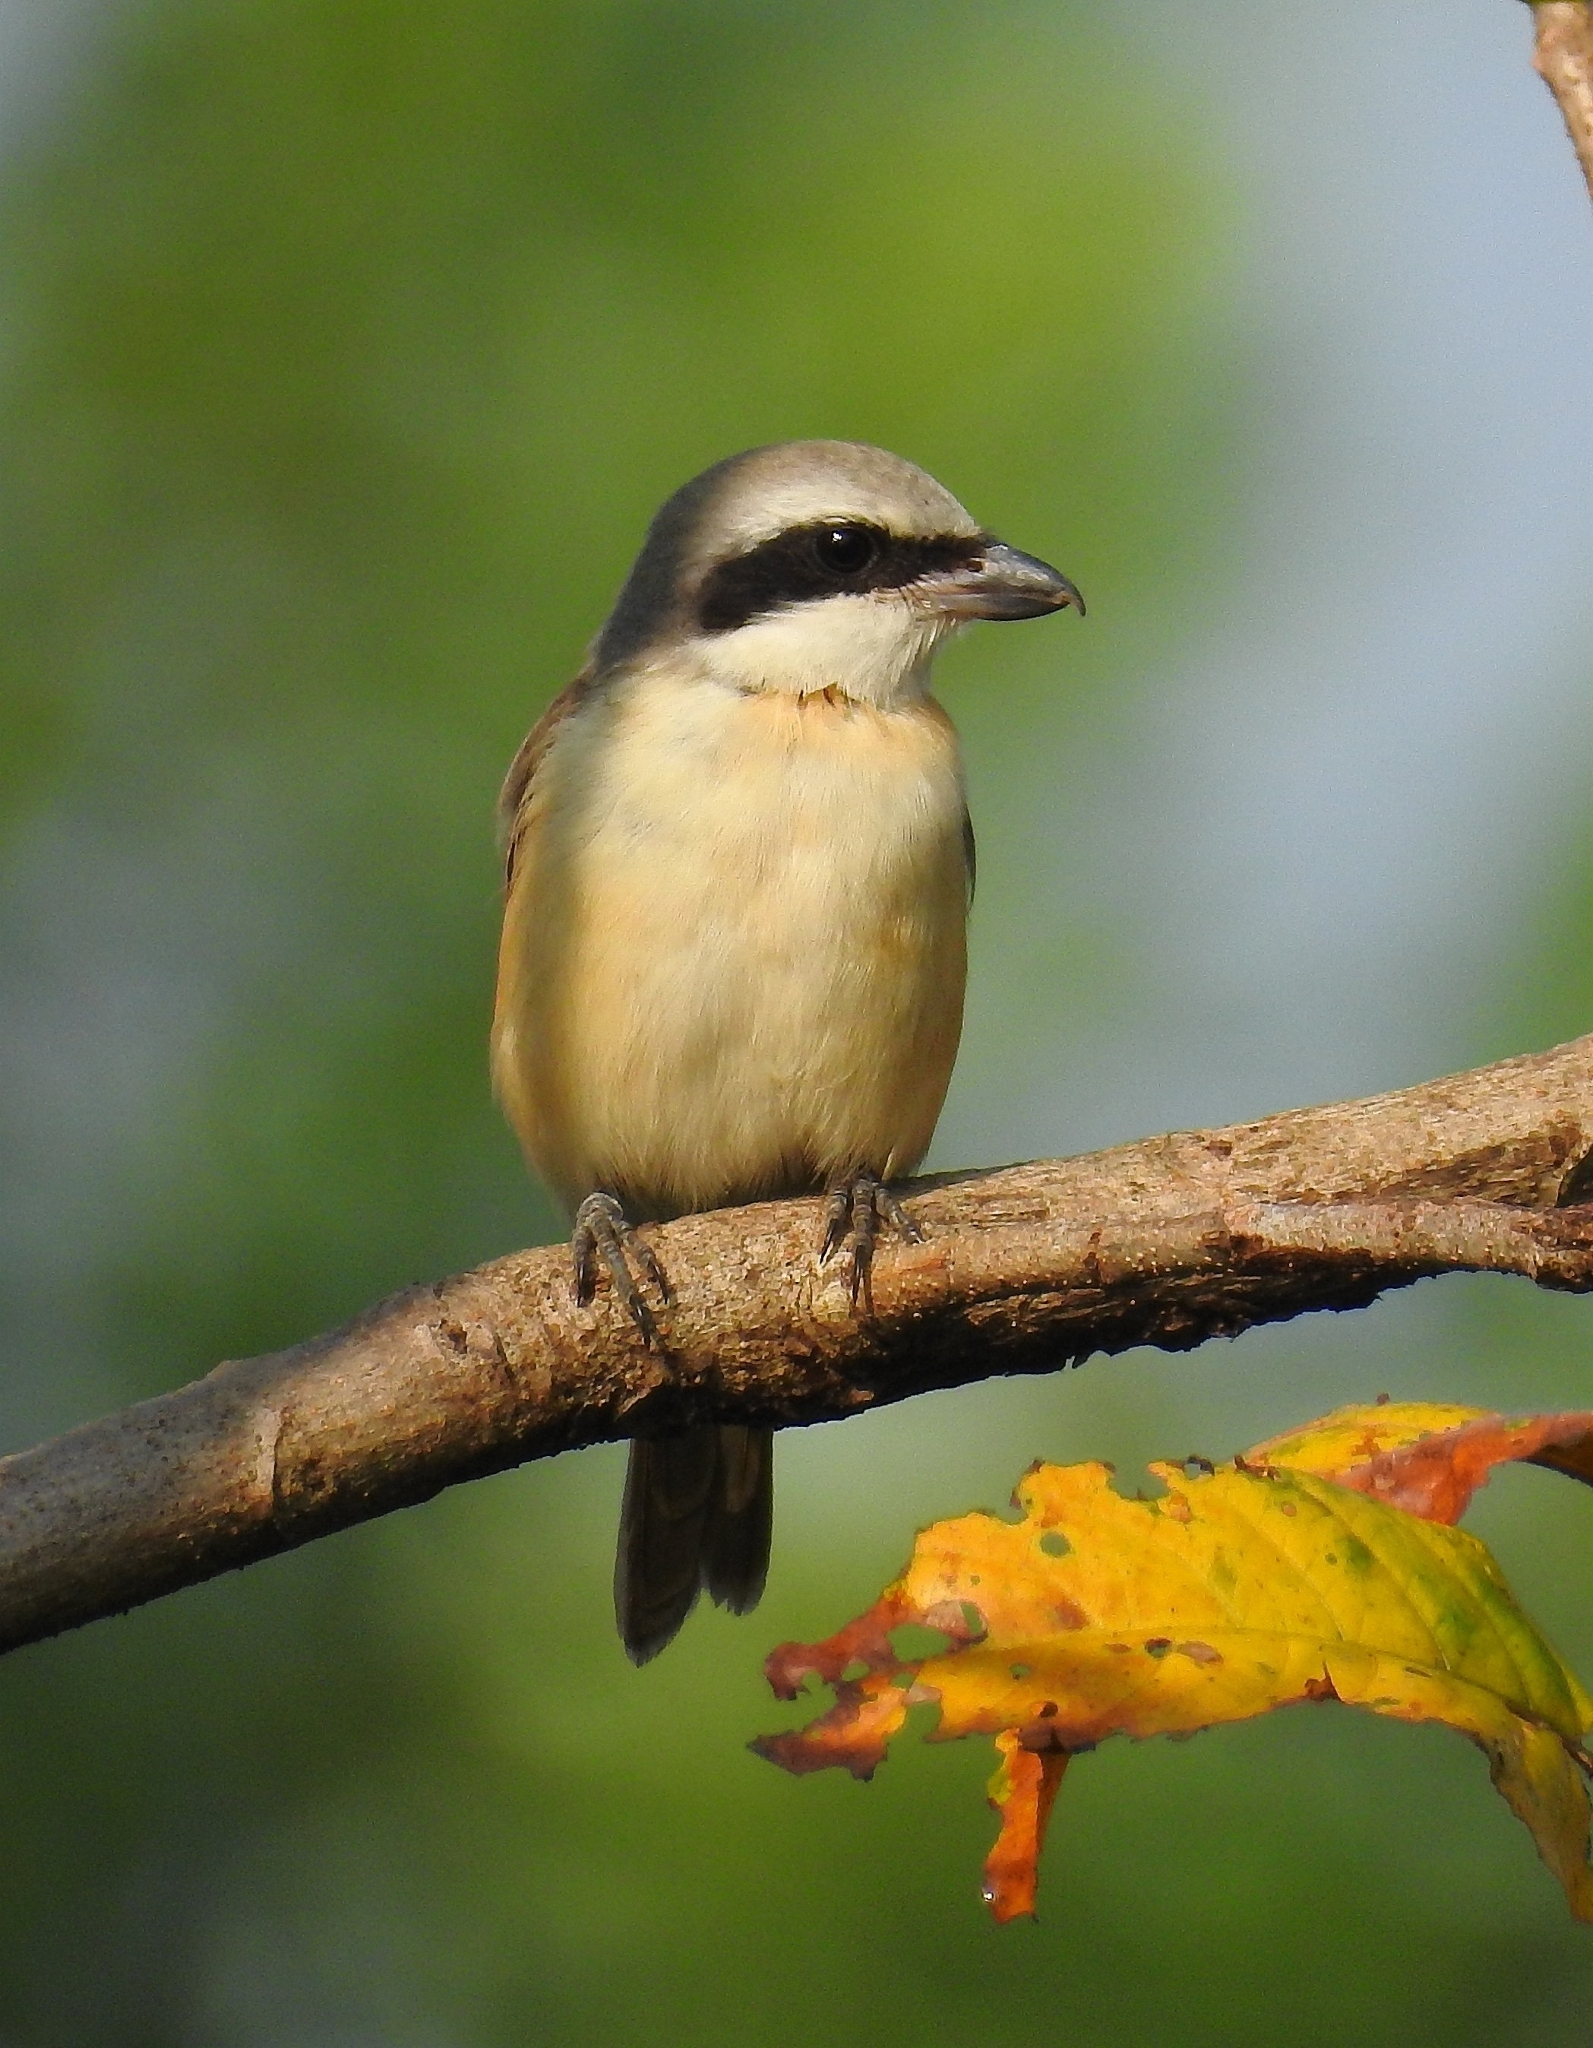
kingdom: Animalia
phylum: Chordata
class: Aves
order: Passeriformes
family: Laniidae
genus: Lanius
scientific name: Lanius cristatus
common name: Brown shrike
